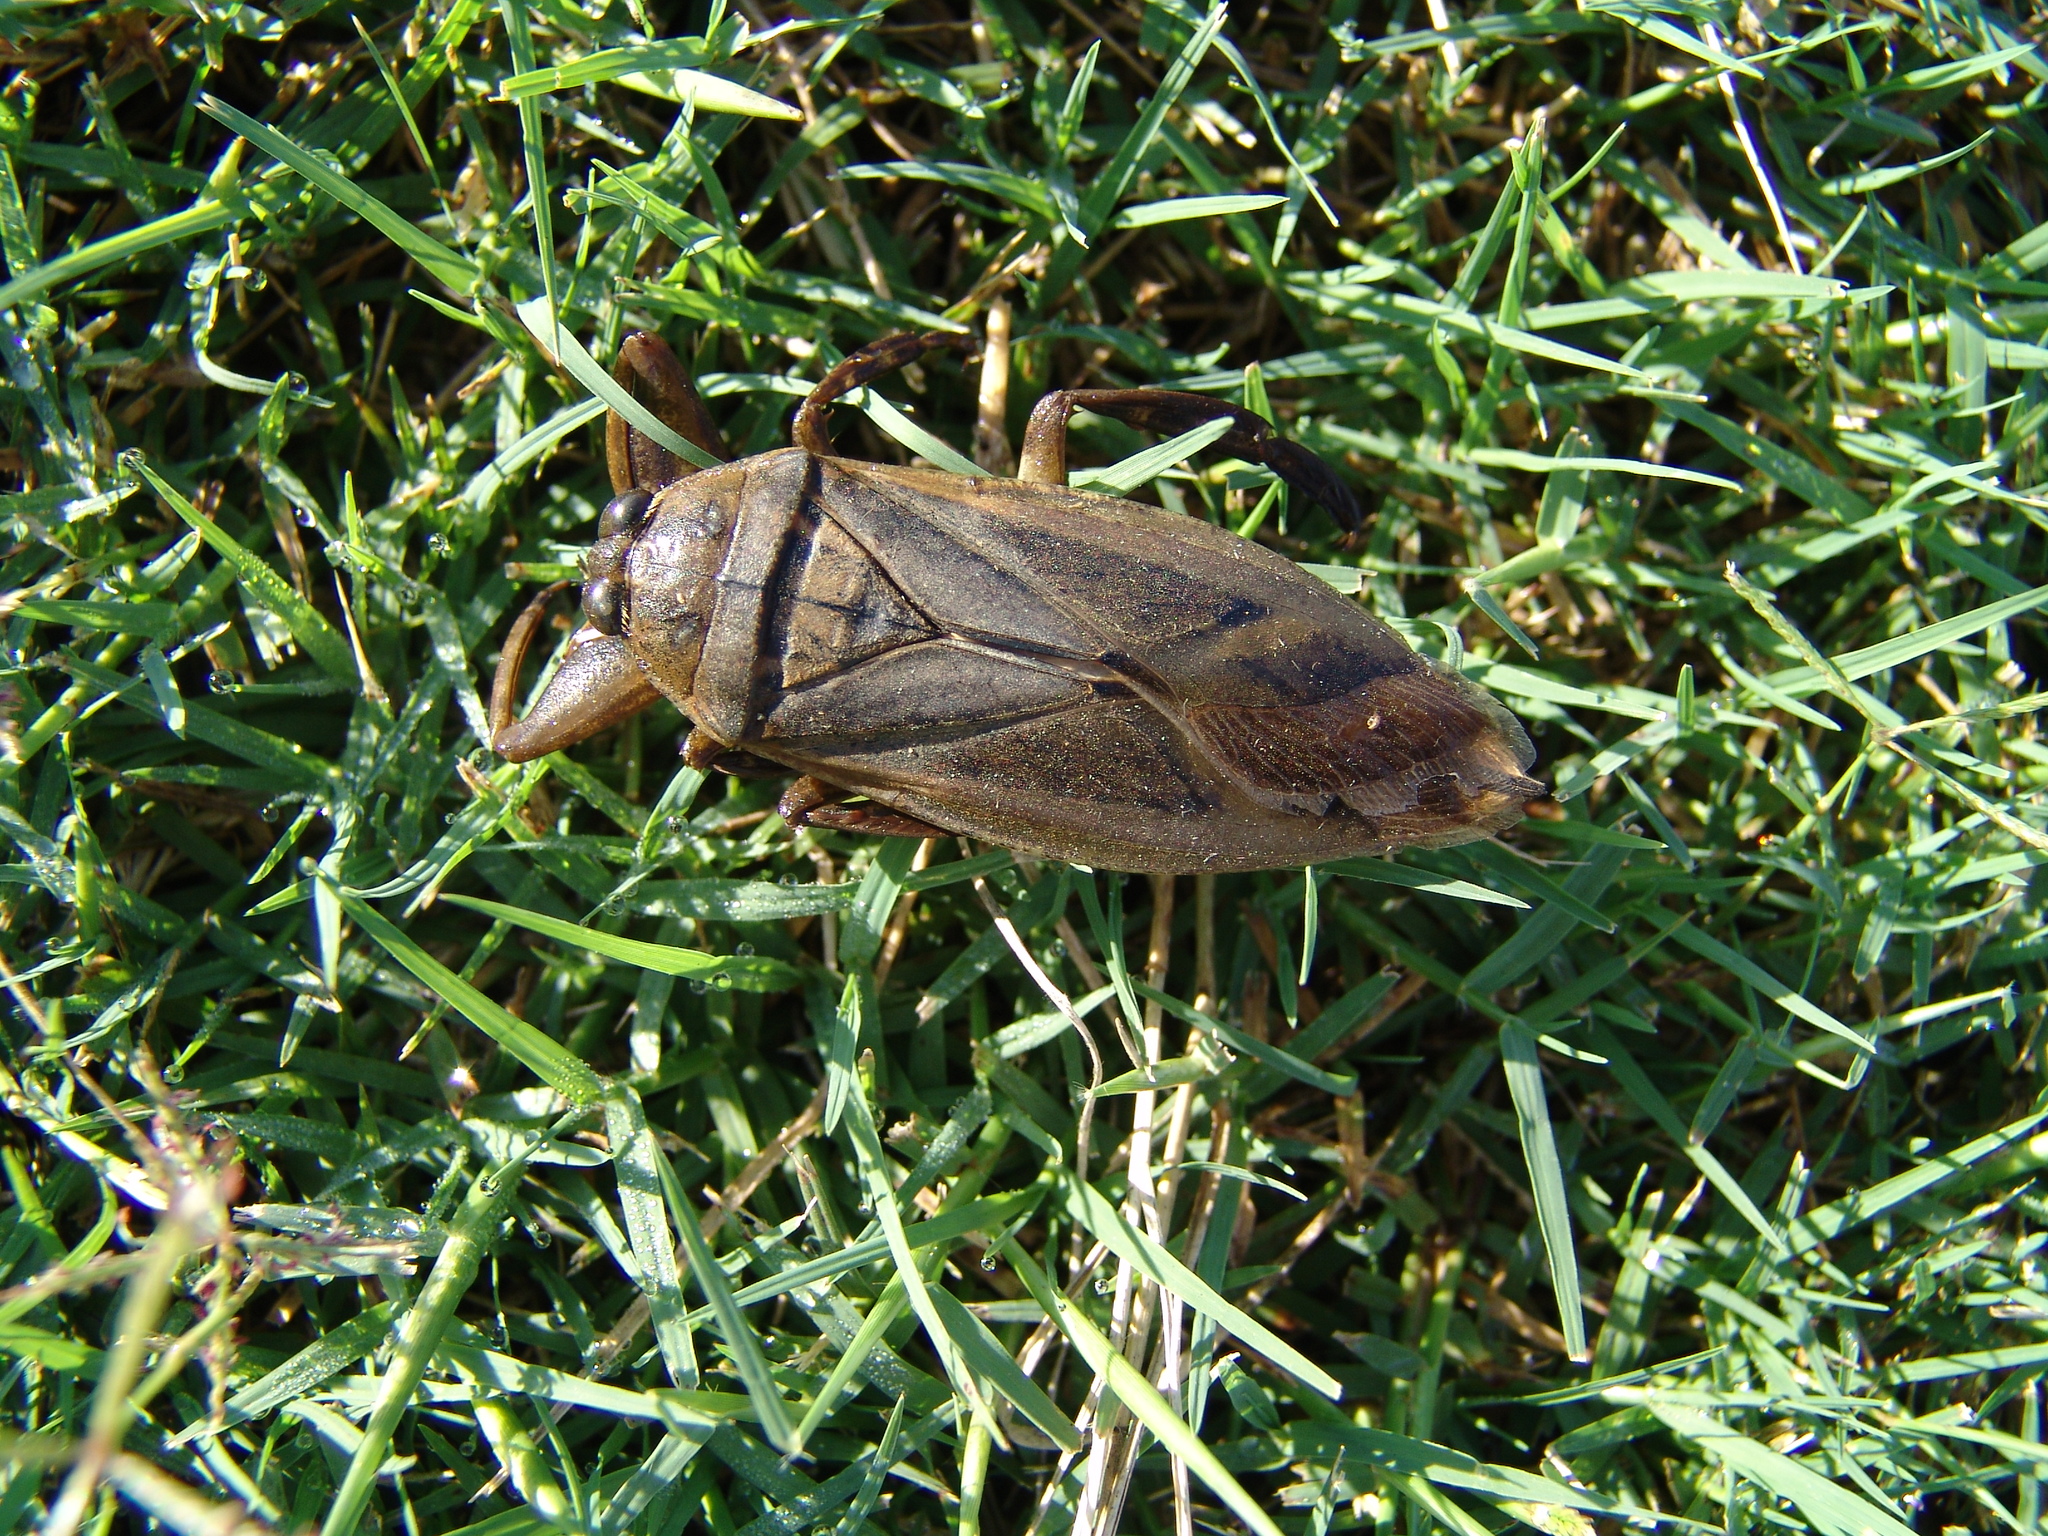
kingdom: Animalia
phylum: Arthropoda
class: Insecta
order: Hemiptera
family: Belostomatidae
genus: Lethocerus
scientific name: Lethocerus uhleri
